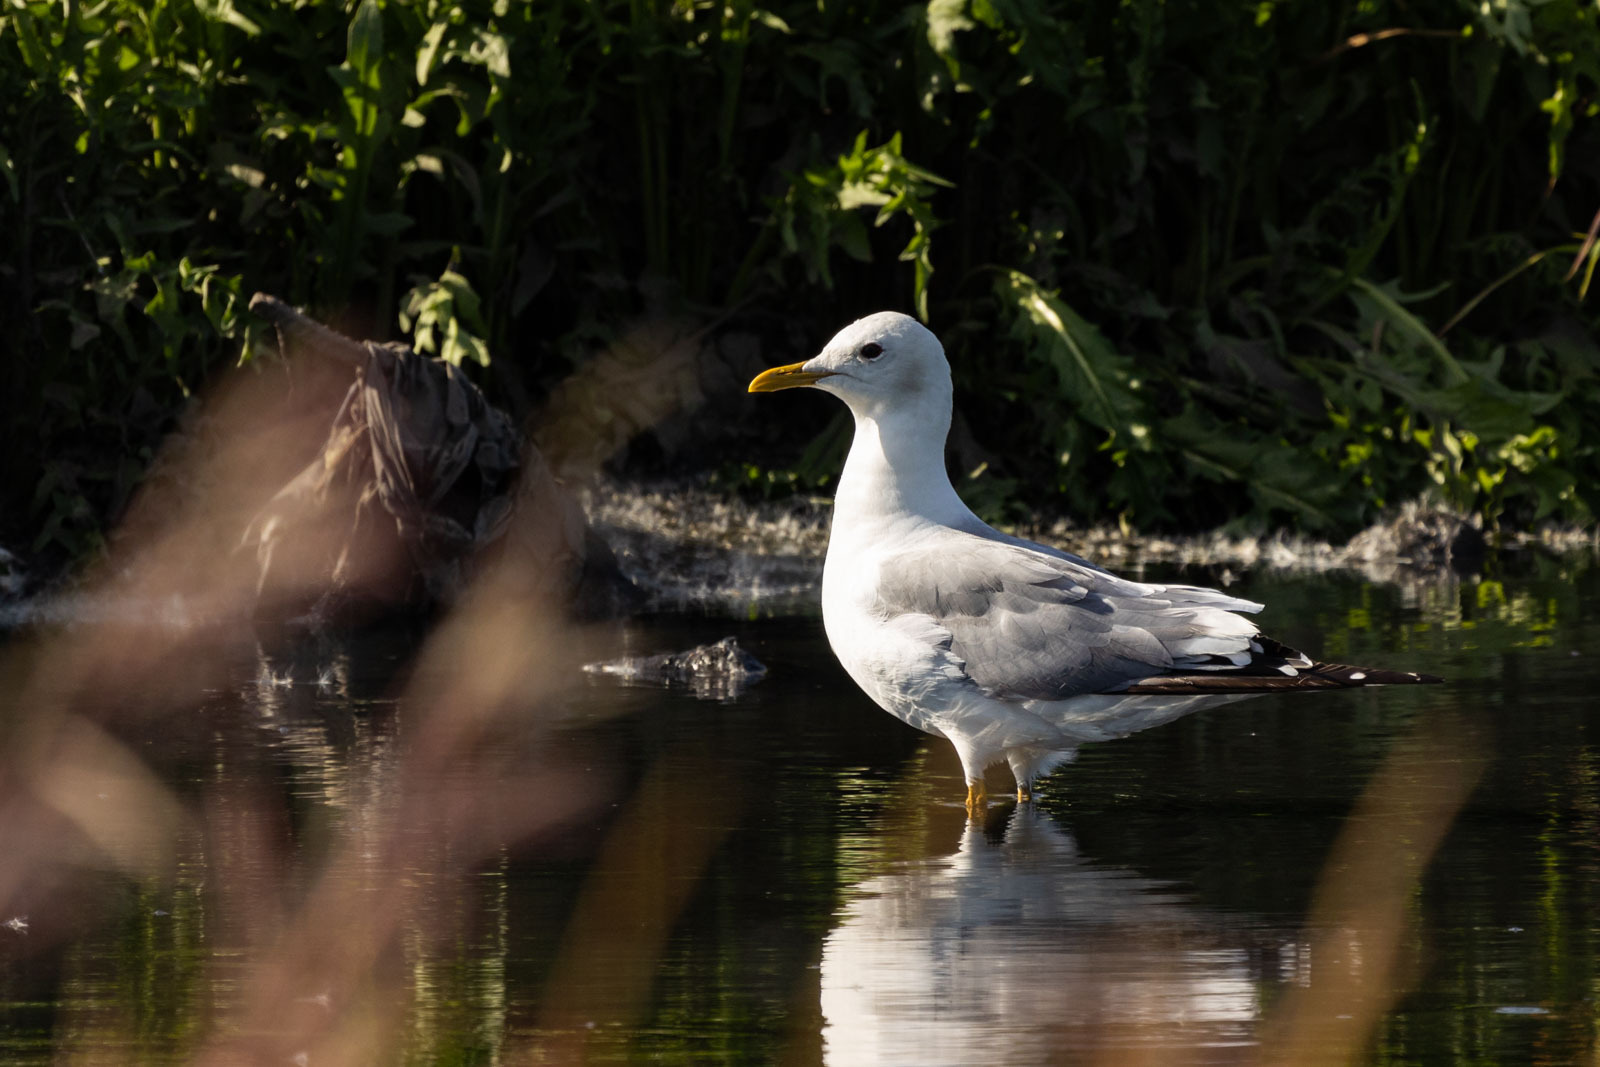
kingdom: Animalia
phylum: Chordata
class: Aves
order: Charadriiformes
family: Laridae
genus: Larus
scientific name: Larus canus
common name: Mew gull
